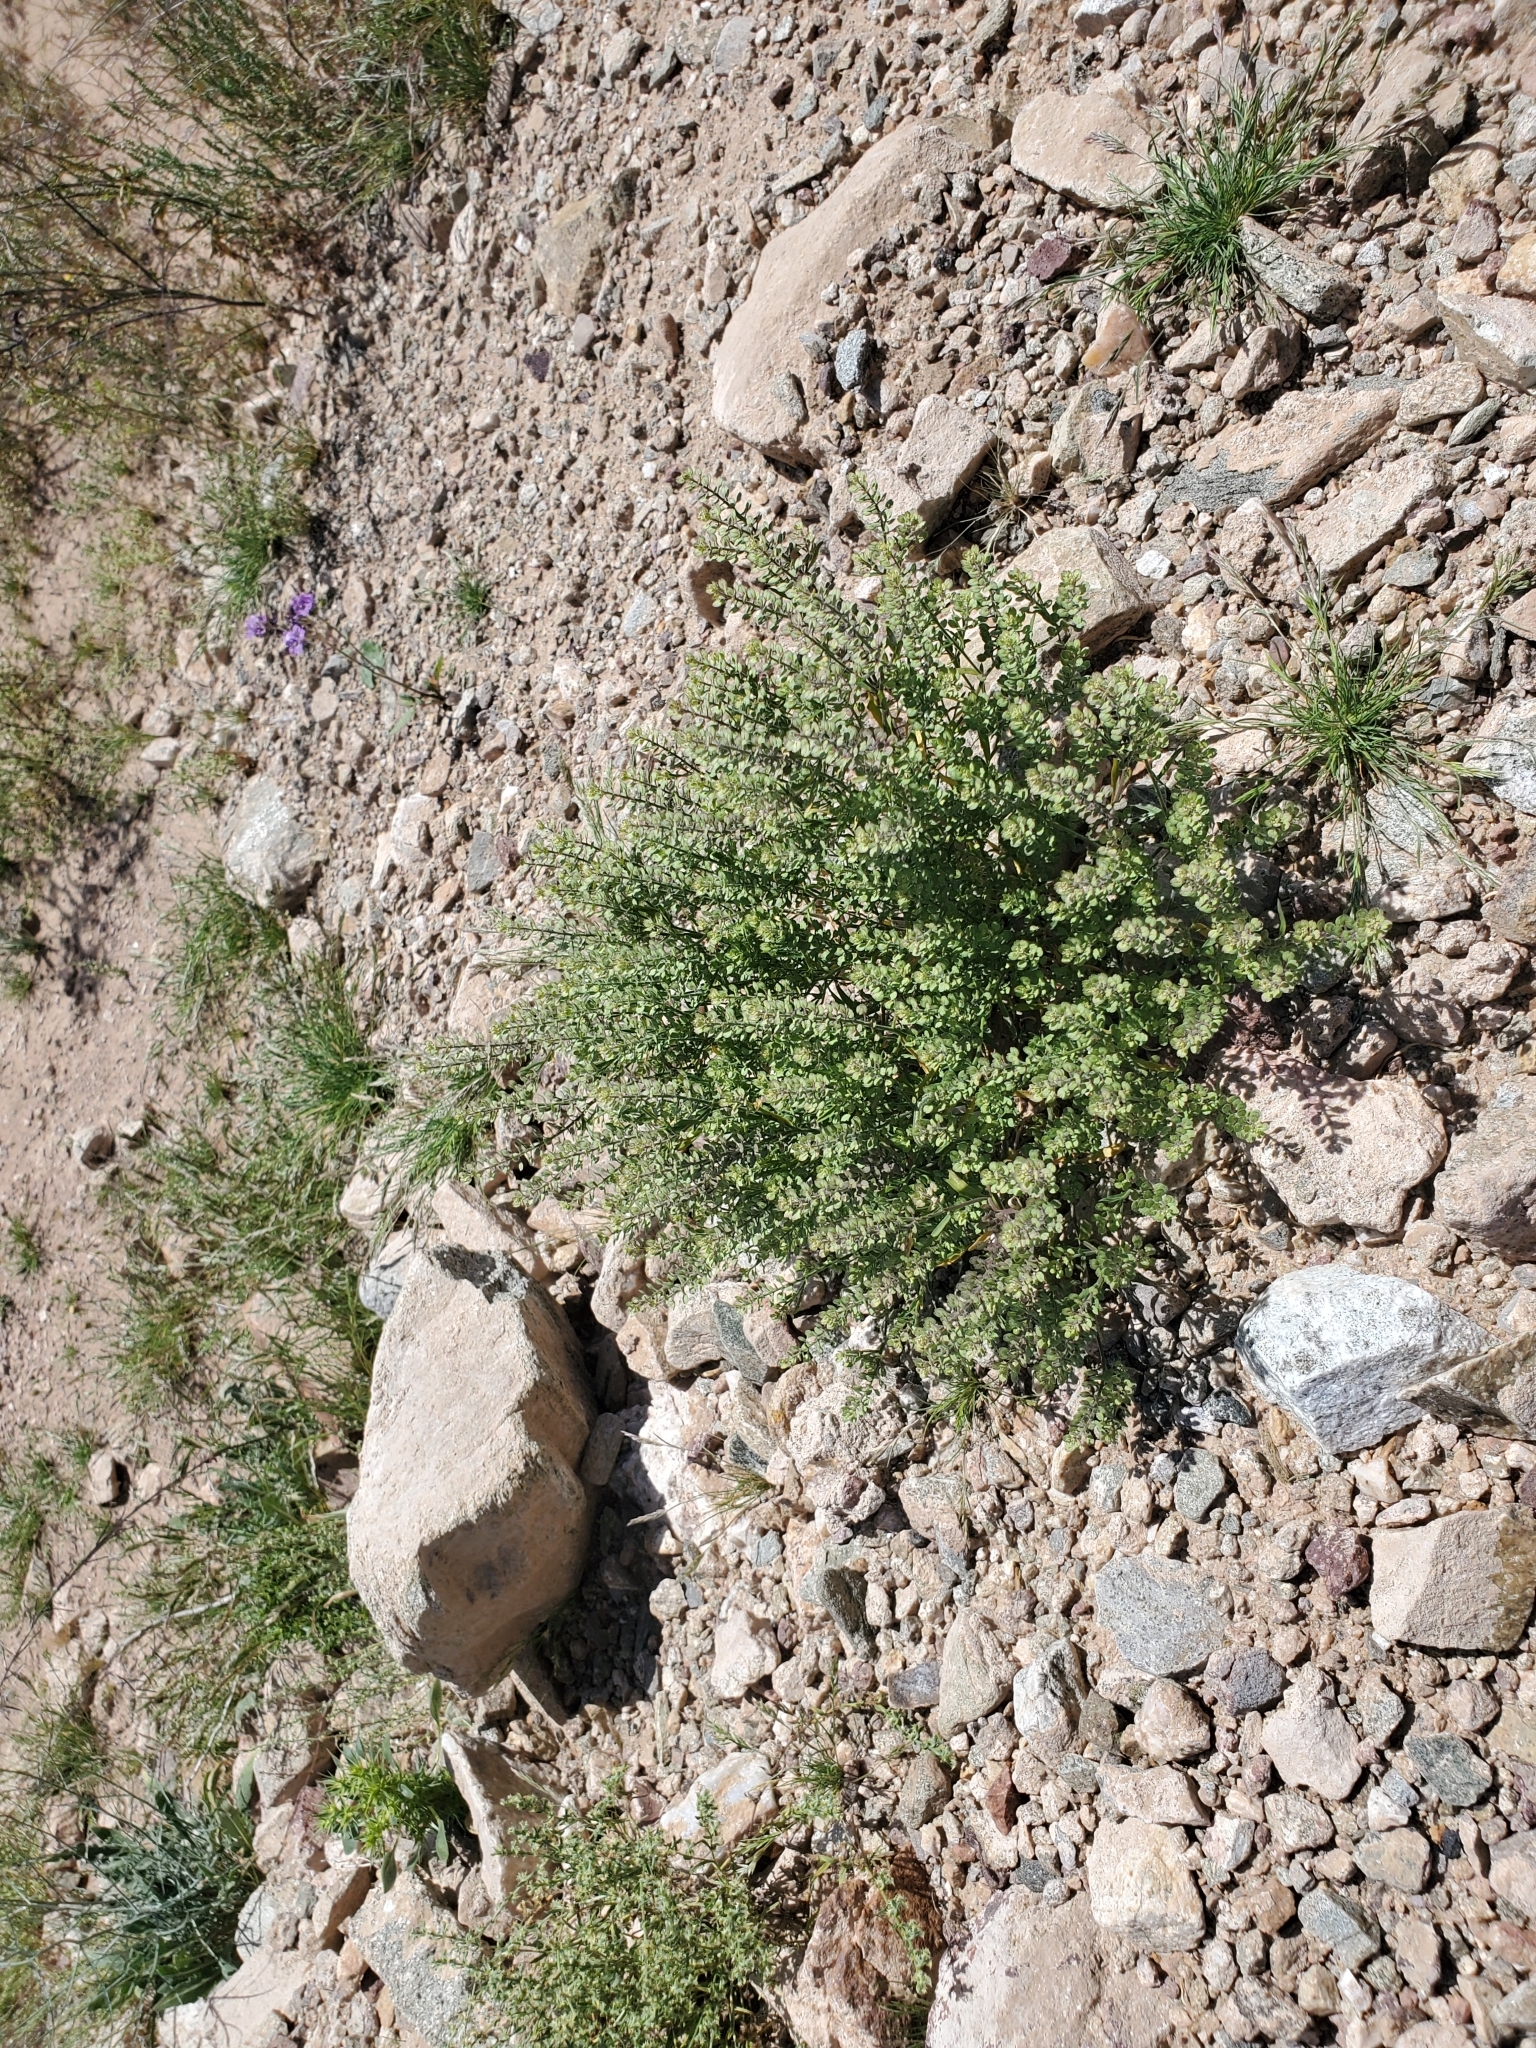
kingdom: Plantae
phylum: Tracheophyta
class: Magnoliopsida
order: Brassicales
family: Brassicaceae
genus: Lepidium
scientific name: Lepidium lasiocarpum
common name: Hairy-pod pepperwort
